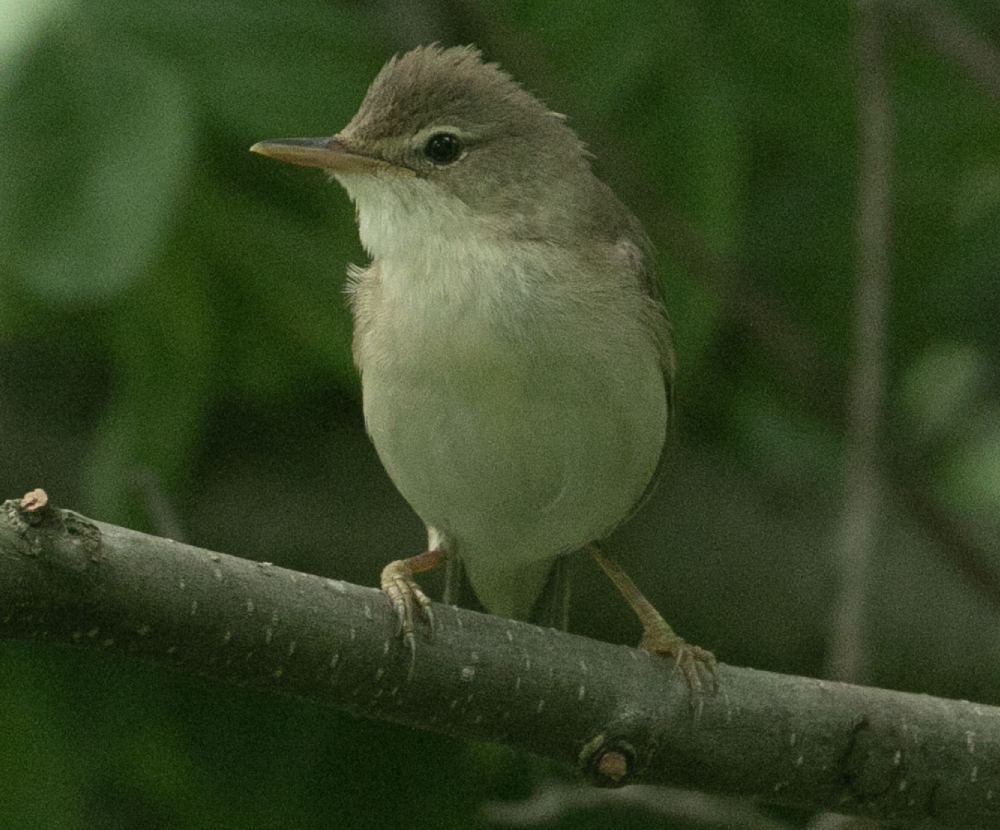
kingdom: Animalia
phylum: Chordata
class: Aves
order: Passeriformes
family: Acrocephalidae
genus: Acrocephalus
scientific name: Acrocephalus palustris
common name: Marsh warbler
